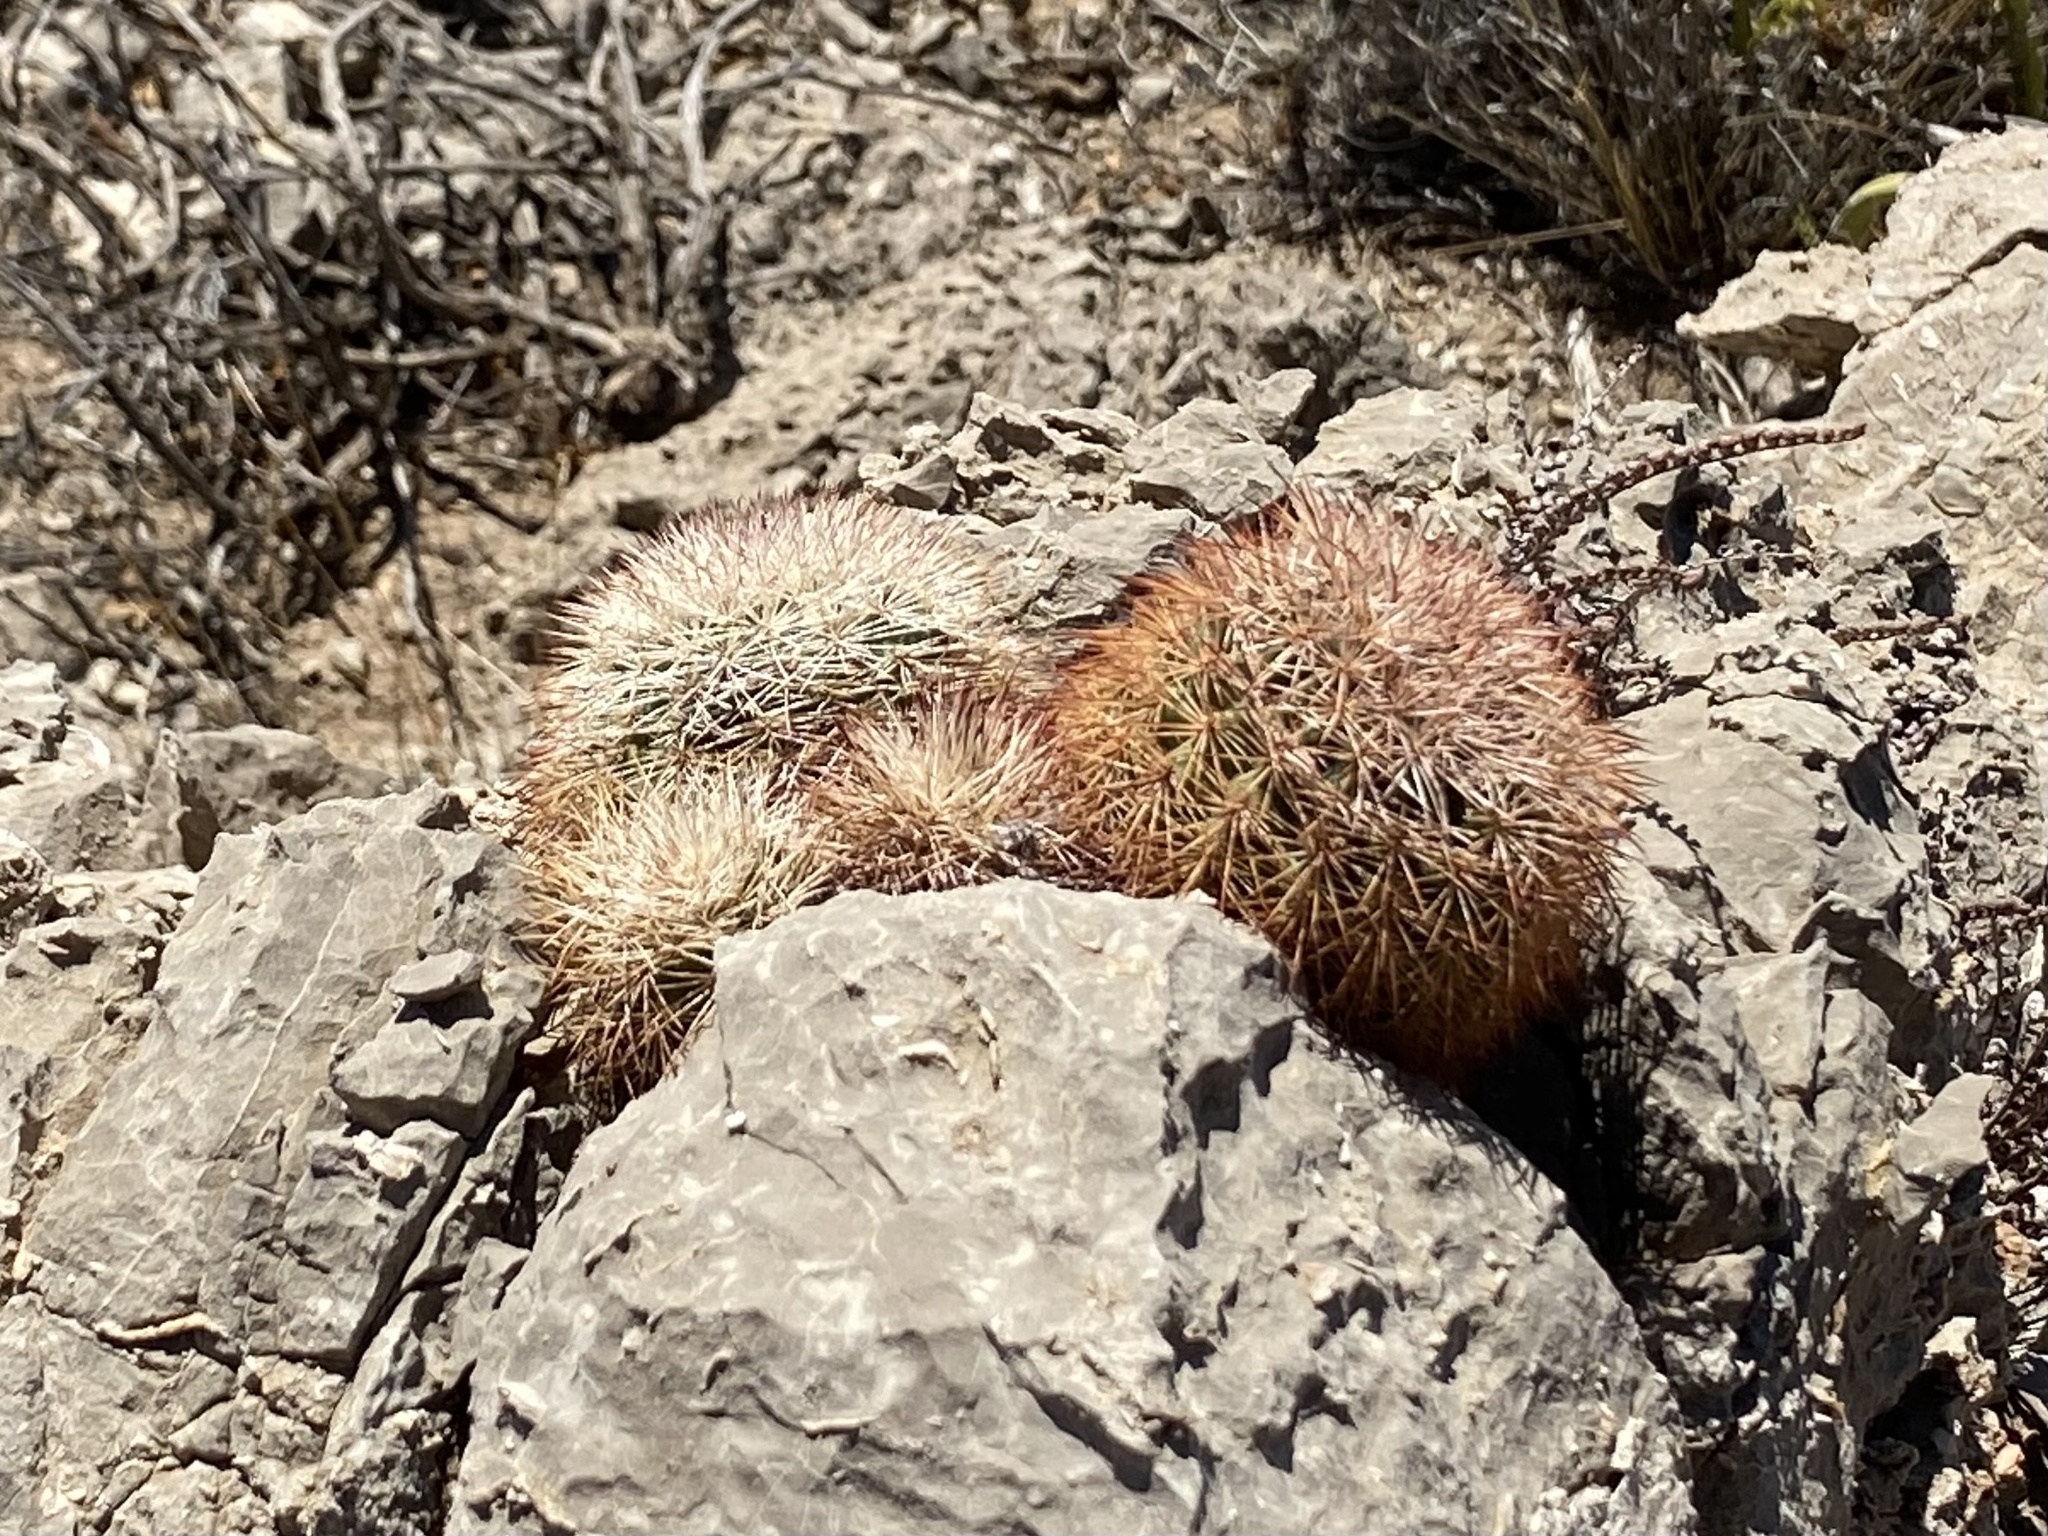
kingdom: Plantae
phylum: Tracheophyta
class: Magnoliopsida
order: Caryophyllales
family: Cactaceae
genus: Echinocereus
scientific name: Echinocereus dasyacanthus
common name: Spiny hedgehog cactus
